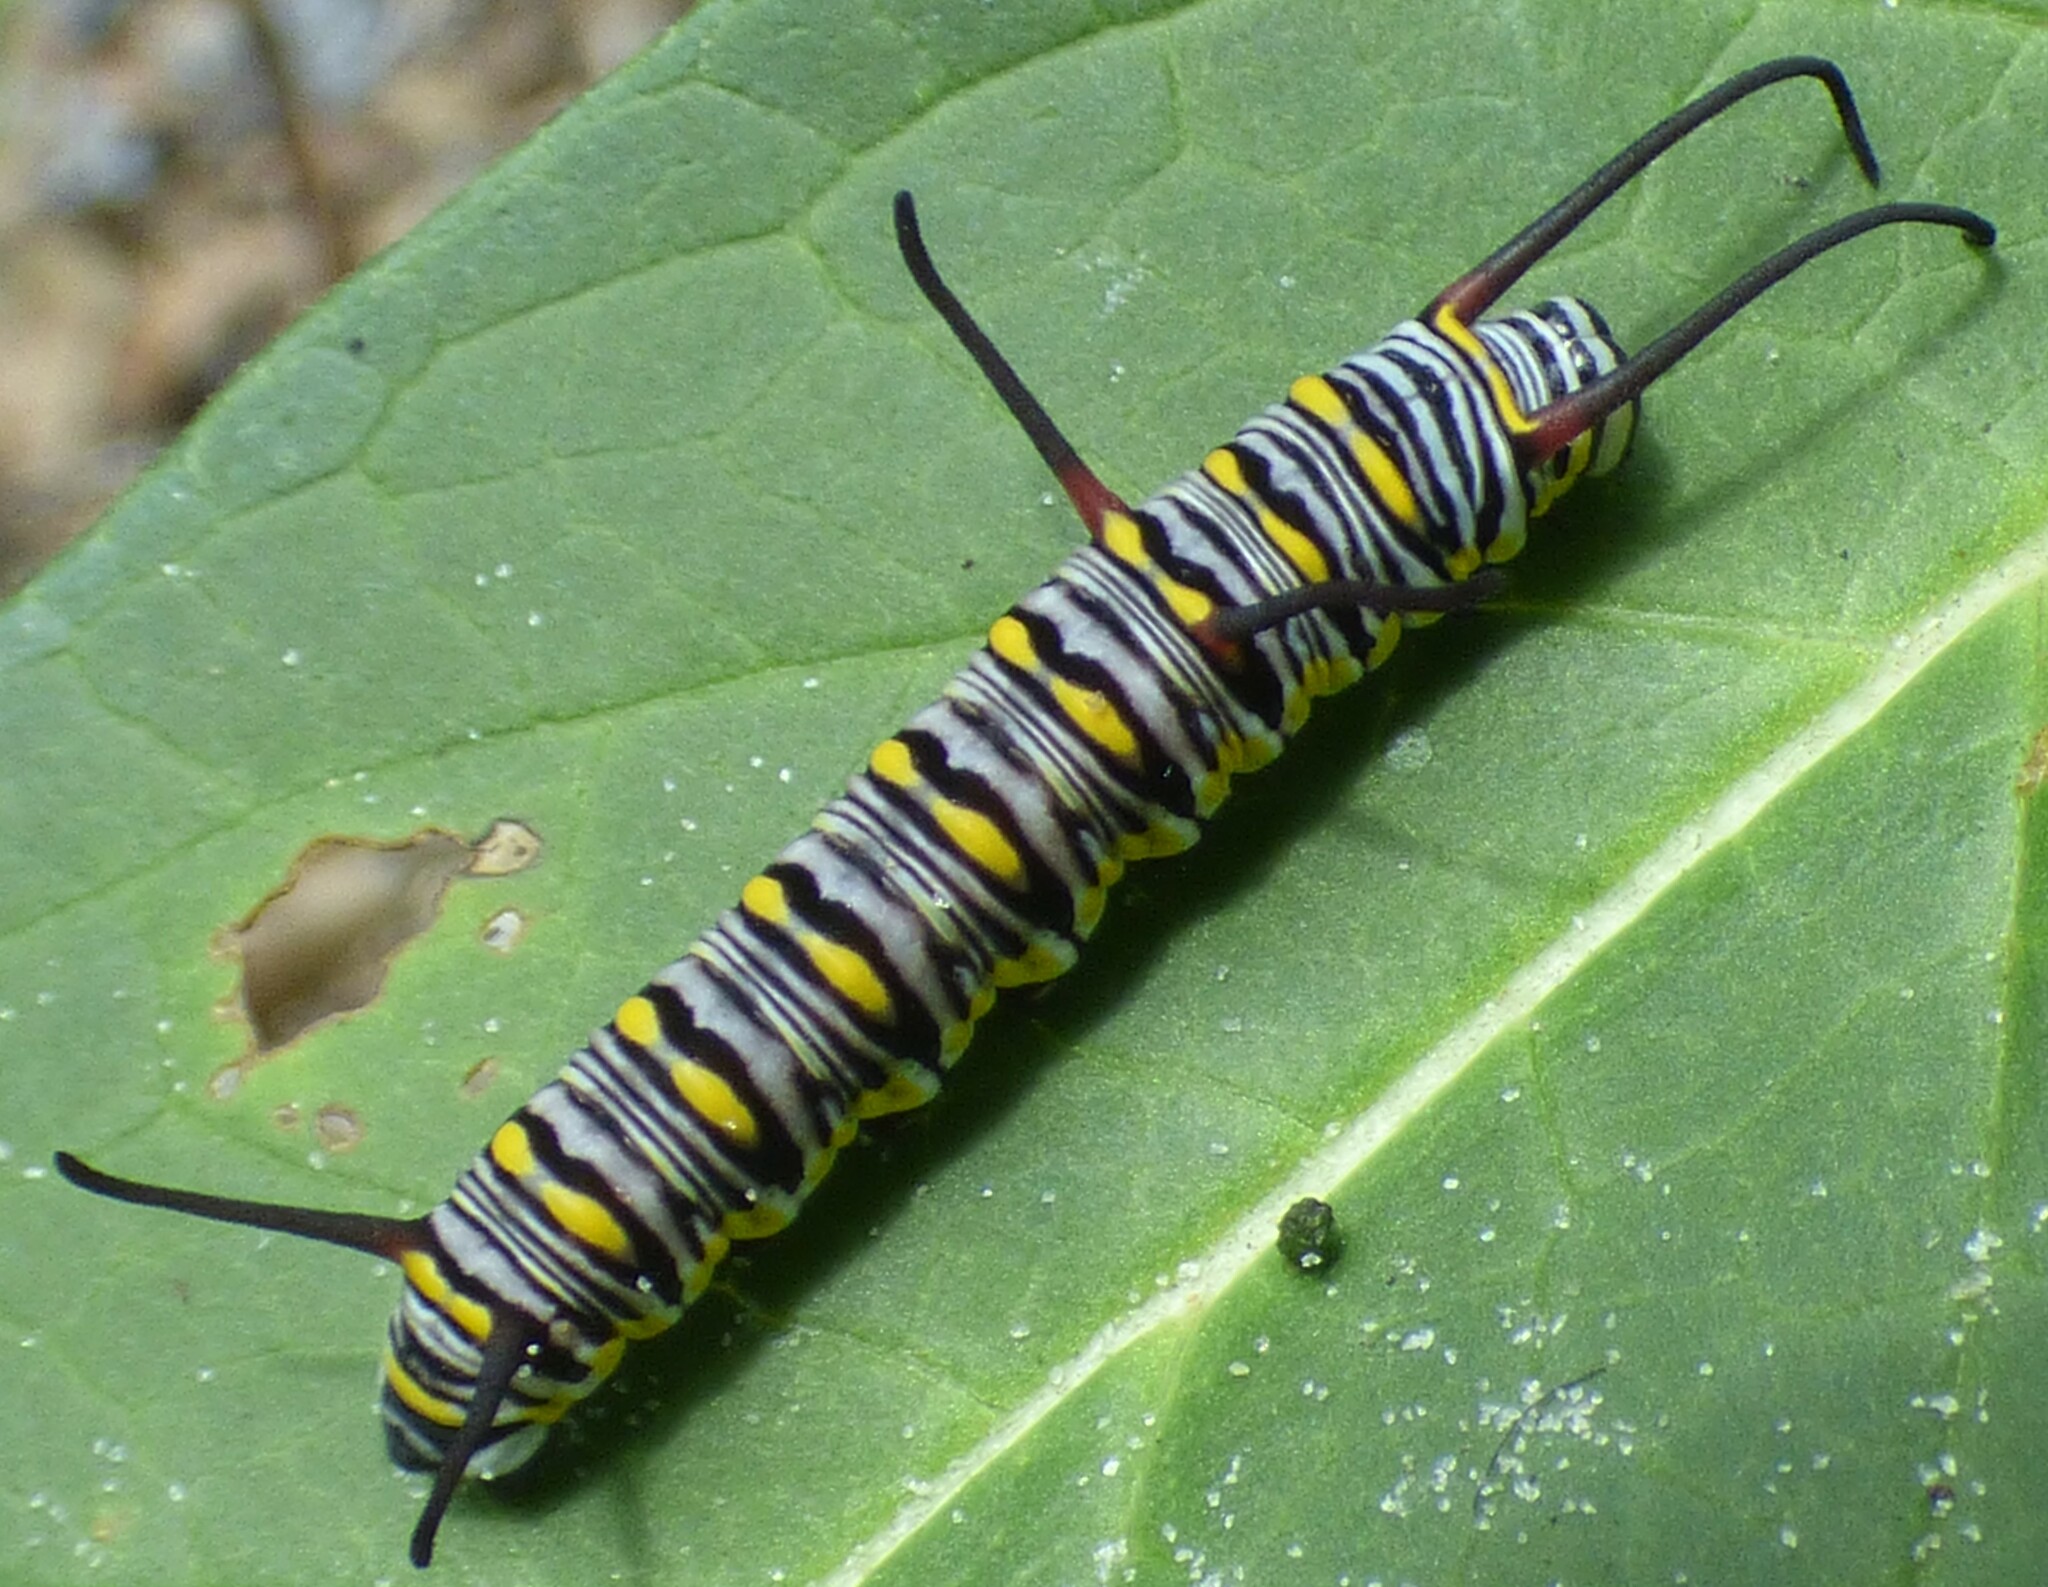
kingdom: Animalia
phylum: Arthropoda
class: Insecta
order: Lepidoptera
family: Nymphalidae
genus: Danaus
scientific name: Danaus gilippus
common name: Queen
